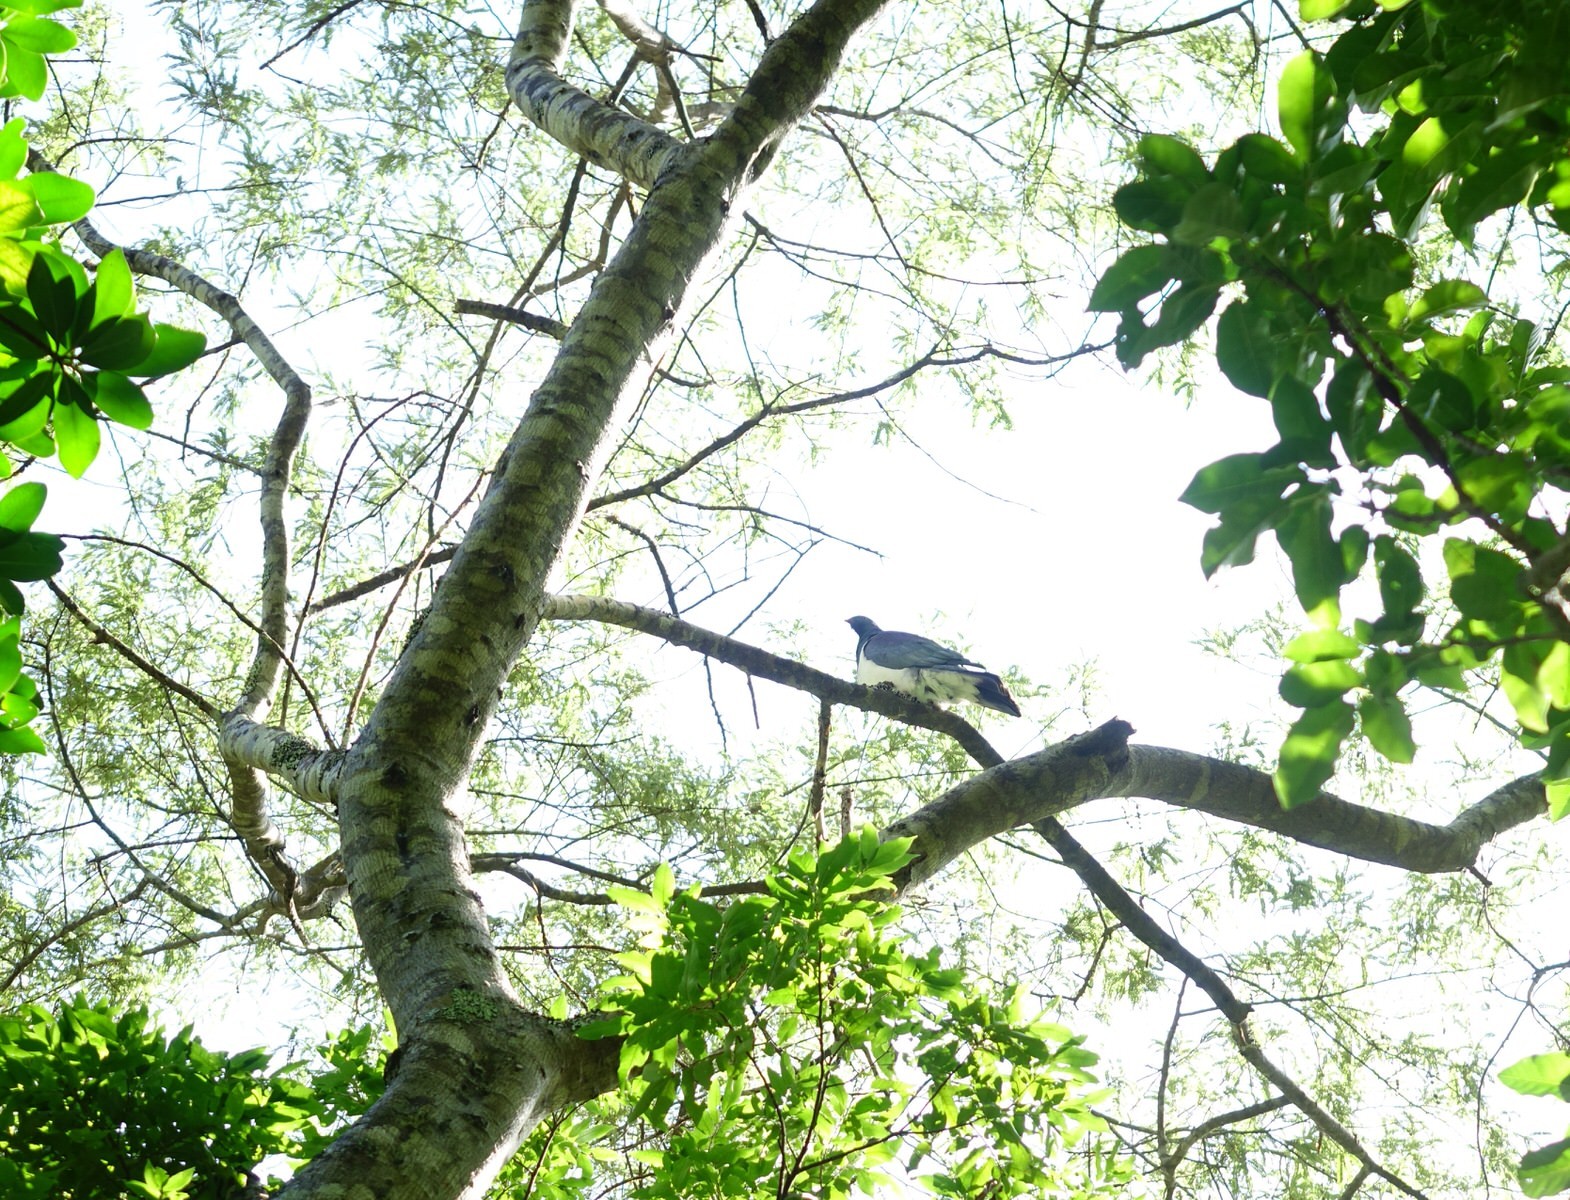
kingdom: Animalia
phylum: Chordata
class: Aves
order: Columbiformes
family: Columbidae
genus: Hemiphaga
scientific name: Hemiphaga novaeseelandiae
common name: New zealand pigeon
